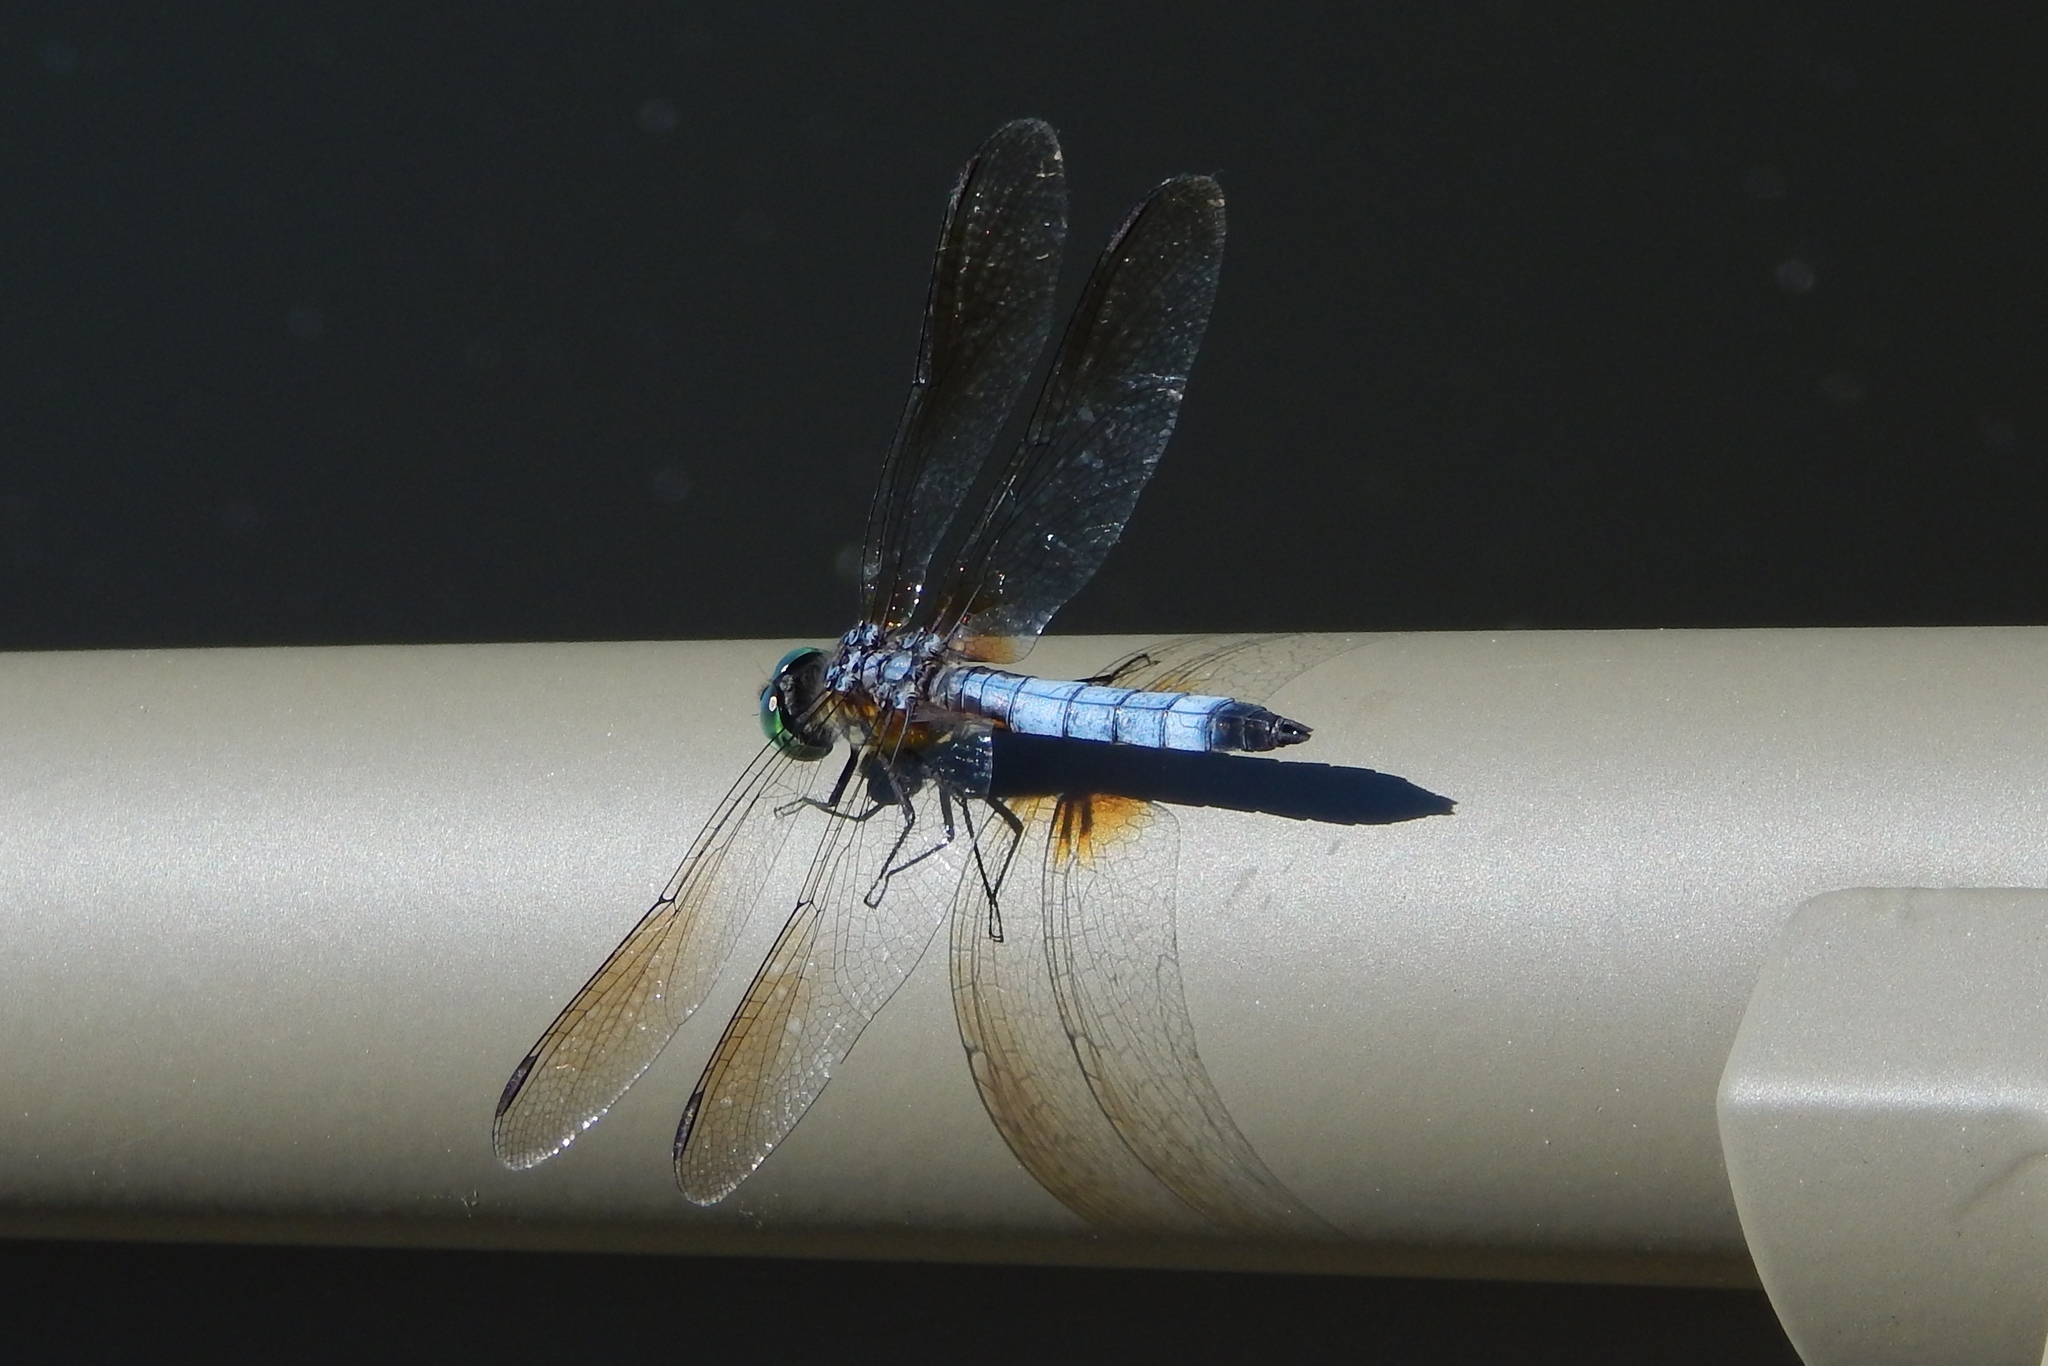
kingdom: Animalia
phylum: Arthropoda
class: Insecta
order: Odonata
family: Libellulidae
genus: Pachydiplax
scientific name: Pachydiplax longipennis
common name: Blue dasher
